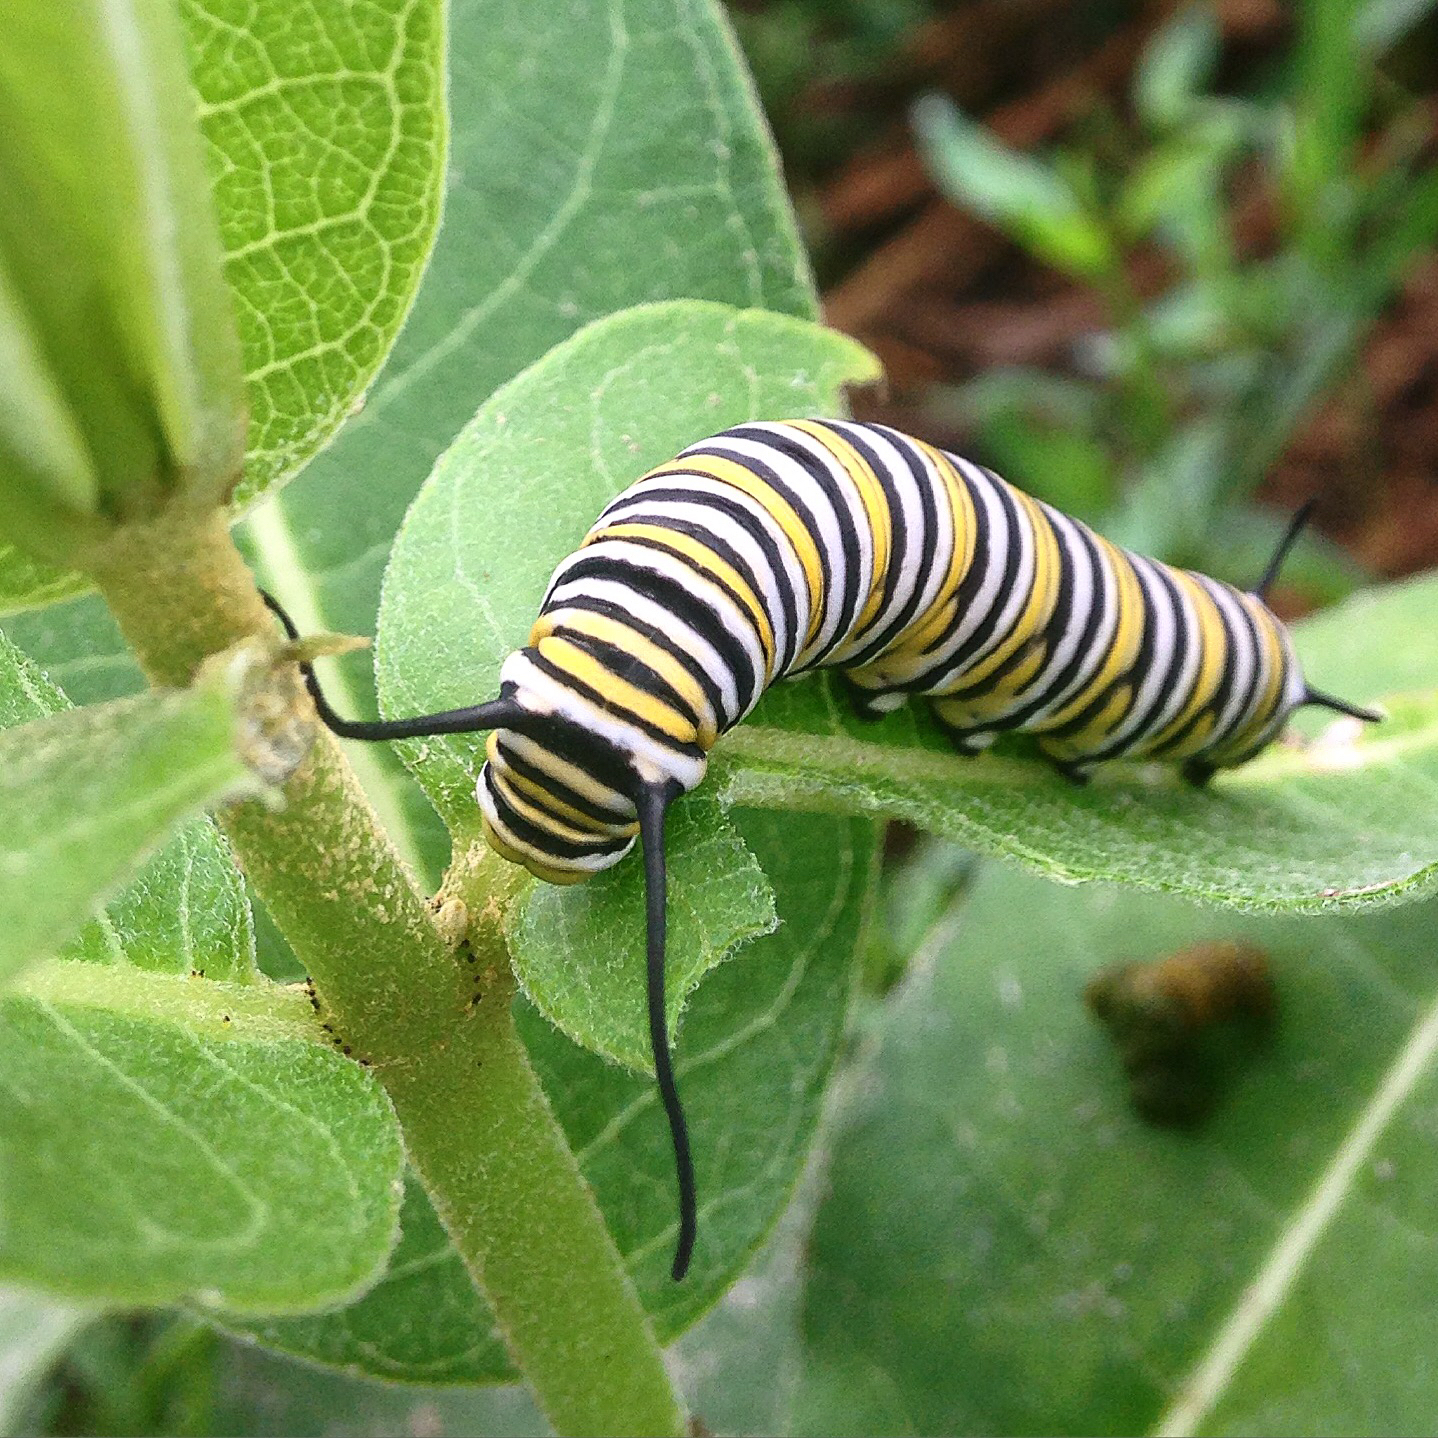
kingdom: Animalia
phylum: Arthropoda
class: Insecta
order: Lepidoptera
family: Nymphalidae
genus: Danaus
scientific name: Danaus plexippus
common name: Monarch
